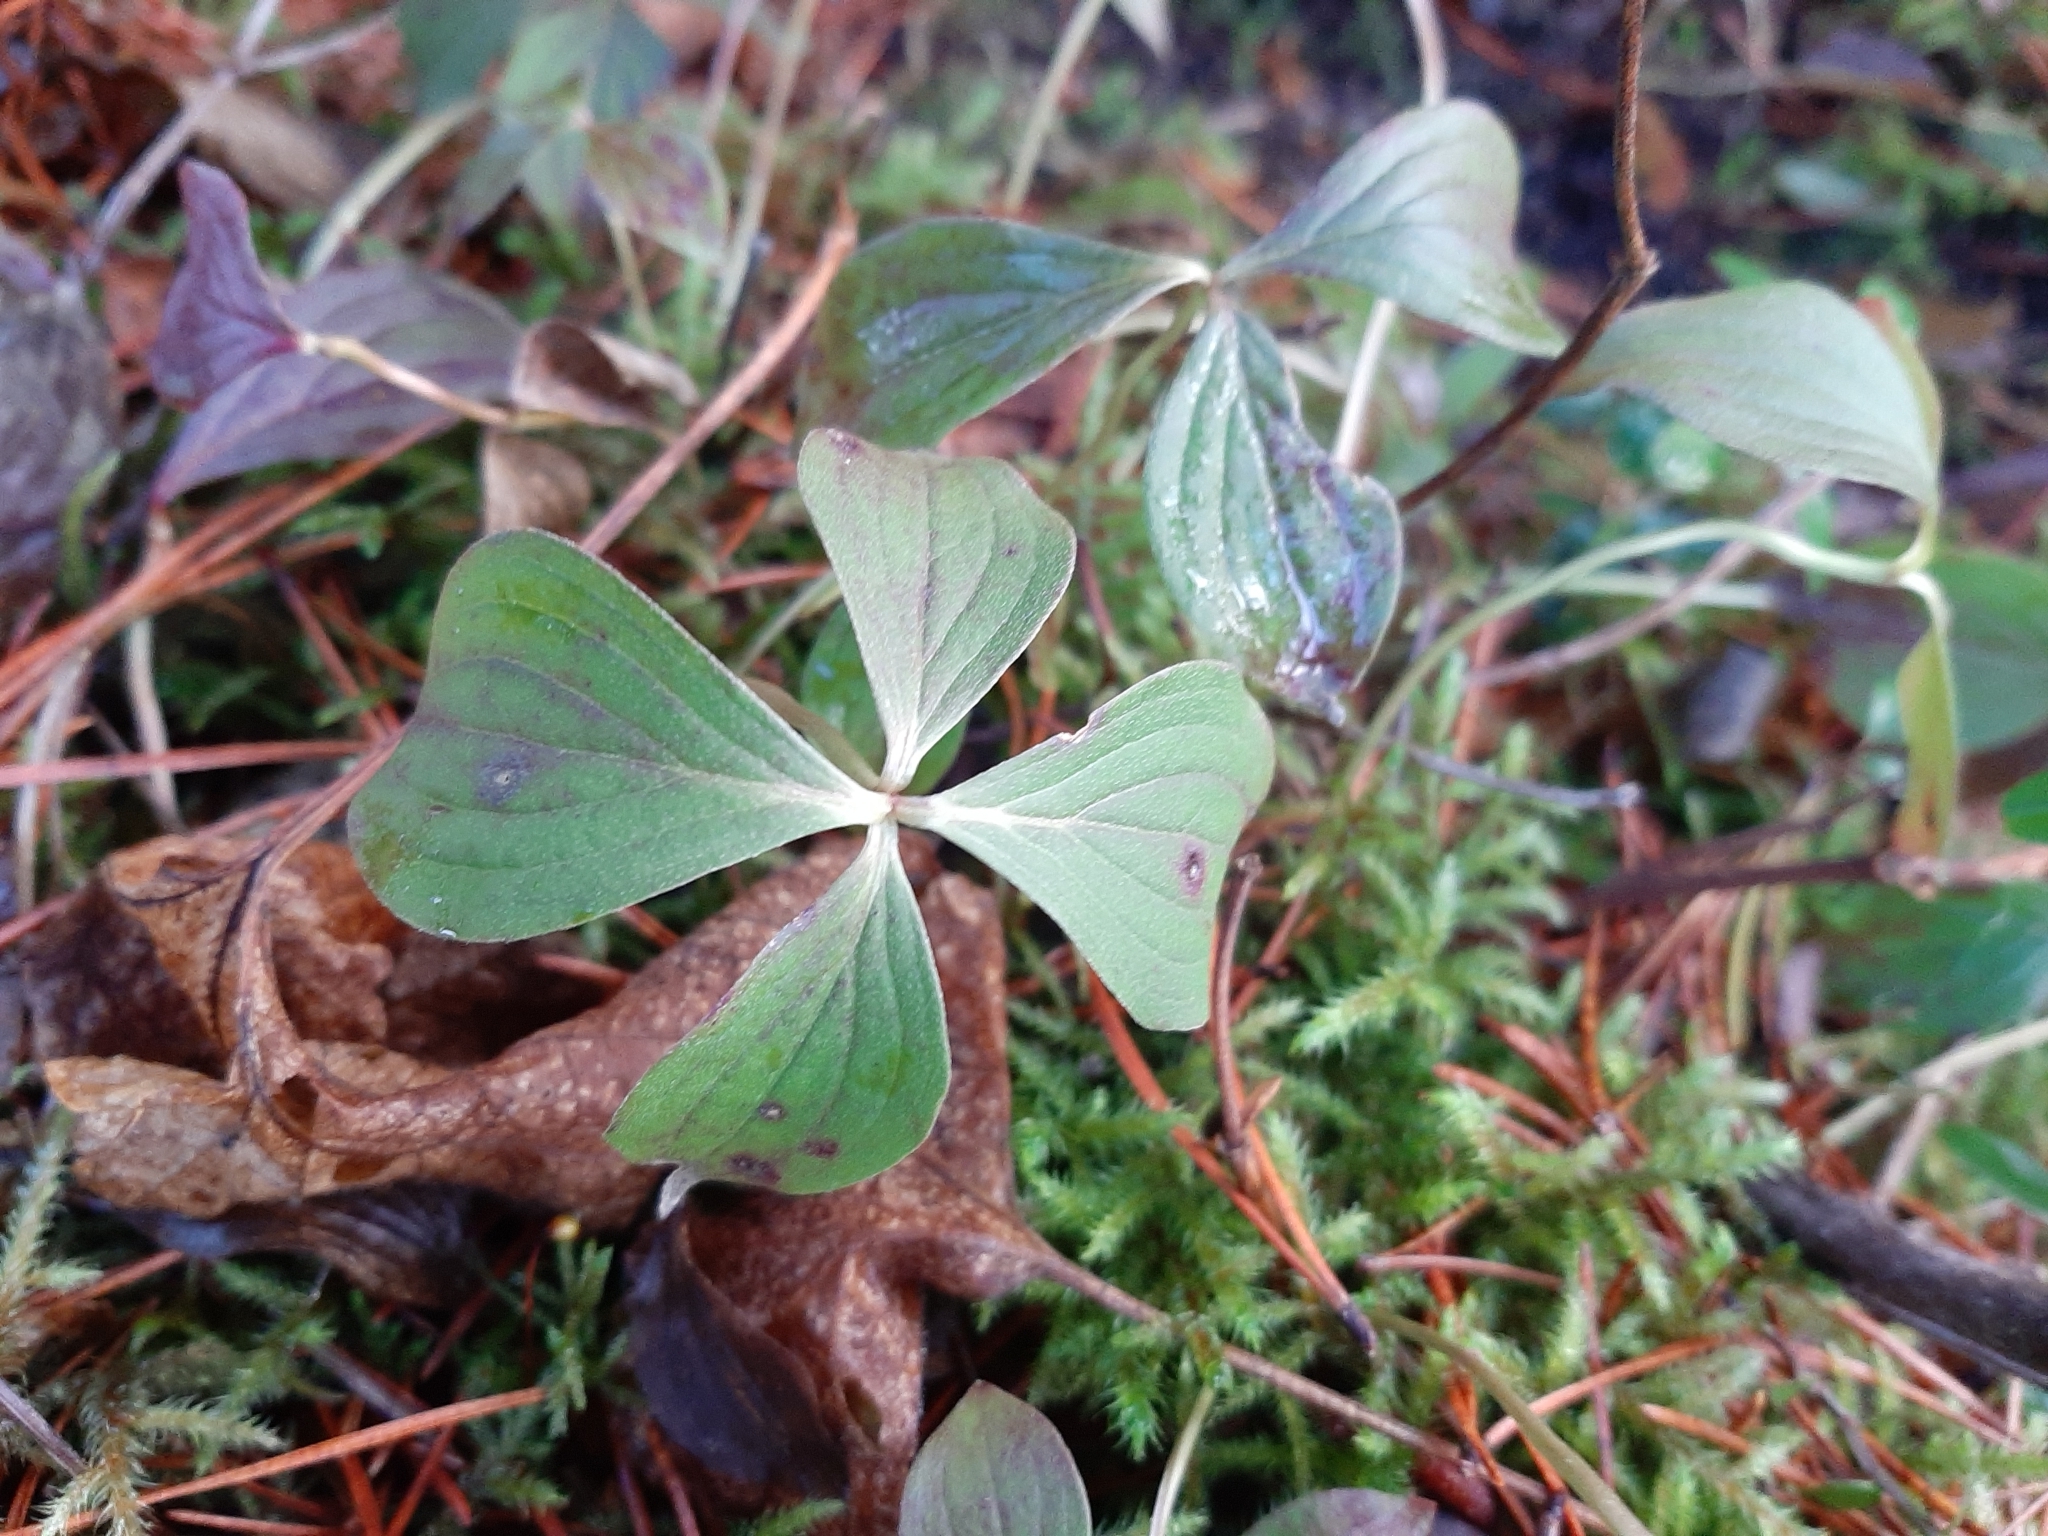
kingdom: Plantae
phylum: Tracheophyta
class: Magnoliopsida
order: Cornales
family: Cornaceae
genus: Cornus
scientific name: Cornus unalaschkensis
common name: Alaska bunchberry
